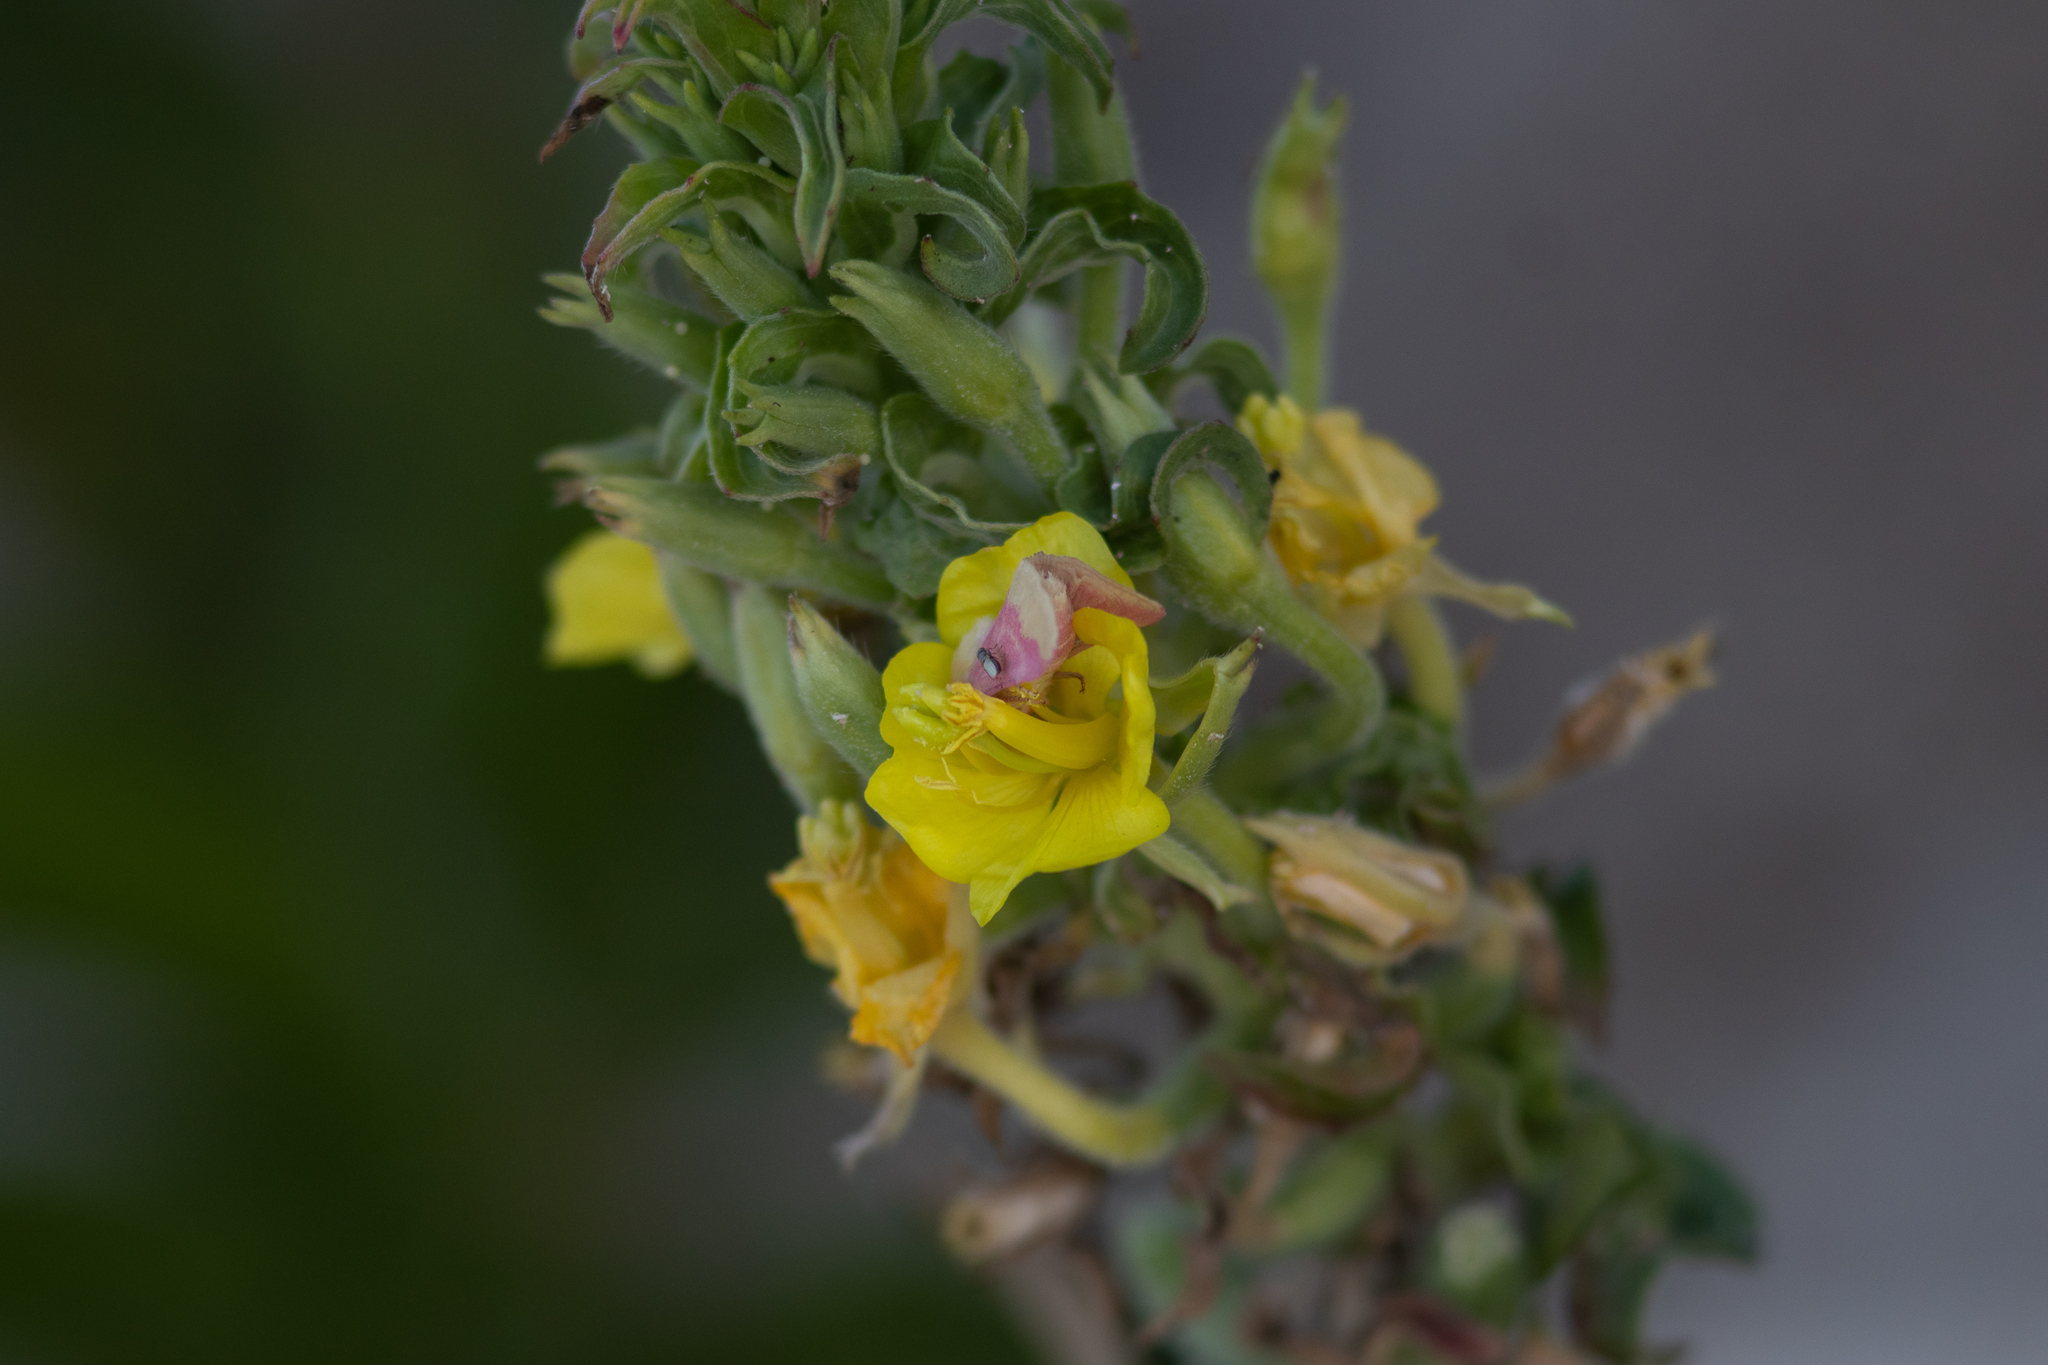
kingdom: Animalia
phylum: Arthropoda
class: Insecta
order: Lepidoptera
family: Noctuidae
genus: Schinia
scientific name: Schinia florida
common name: Primrose moth
